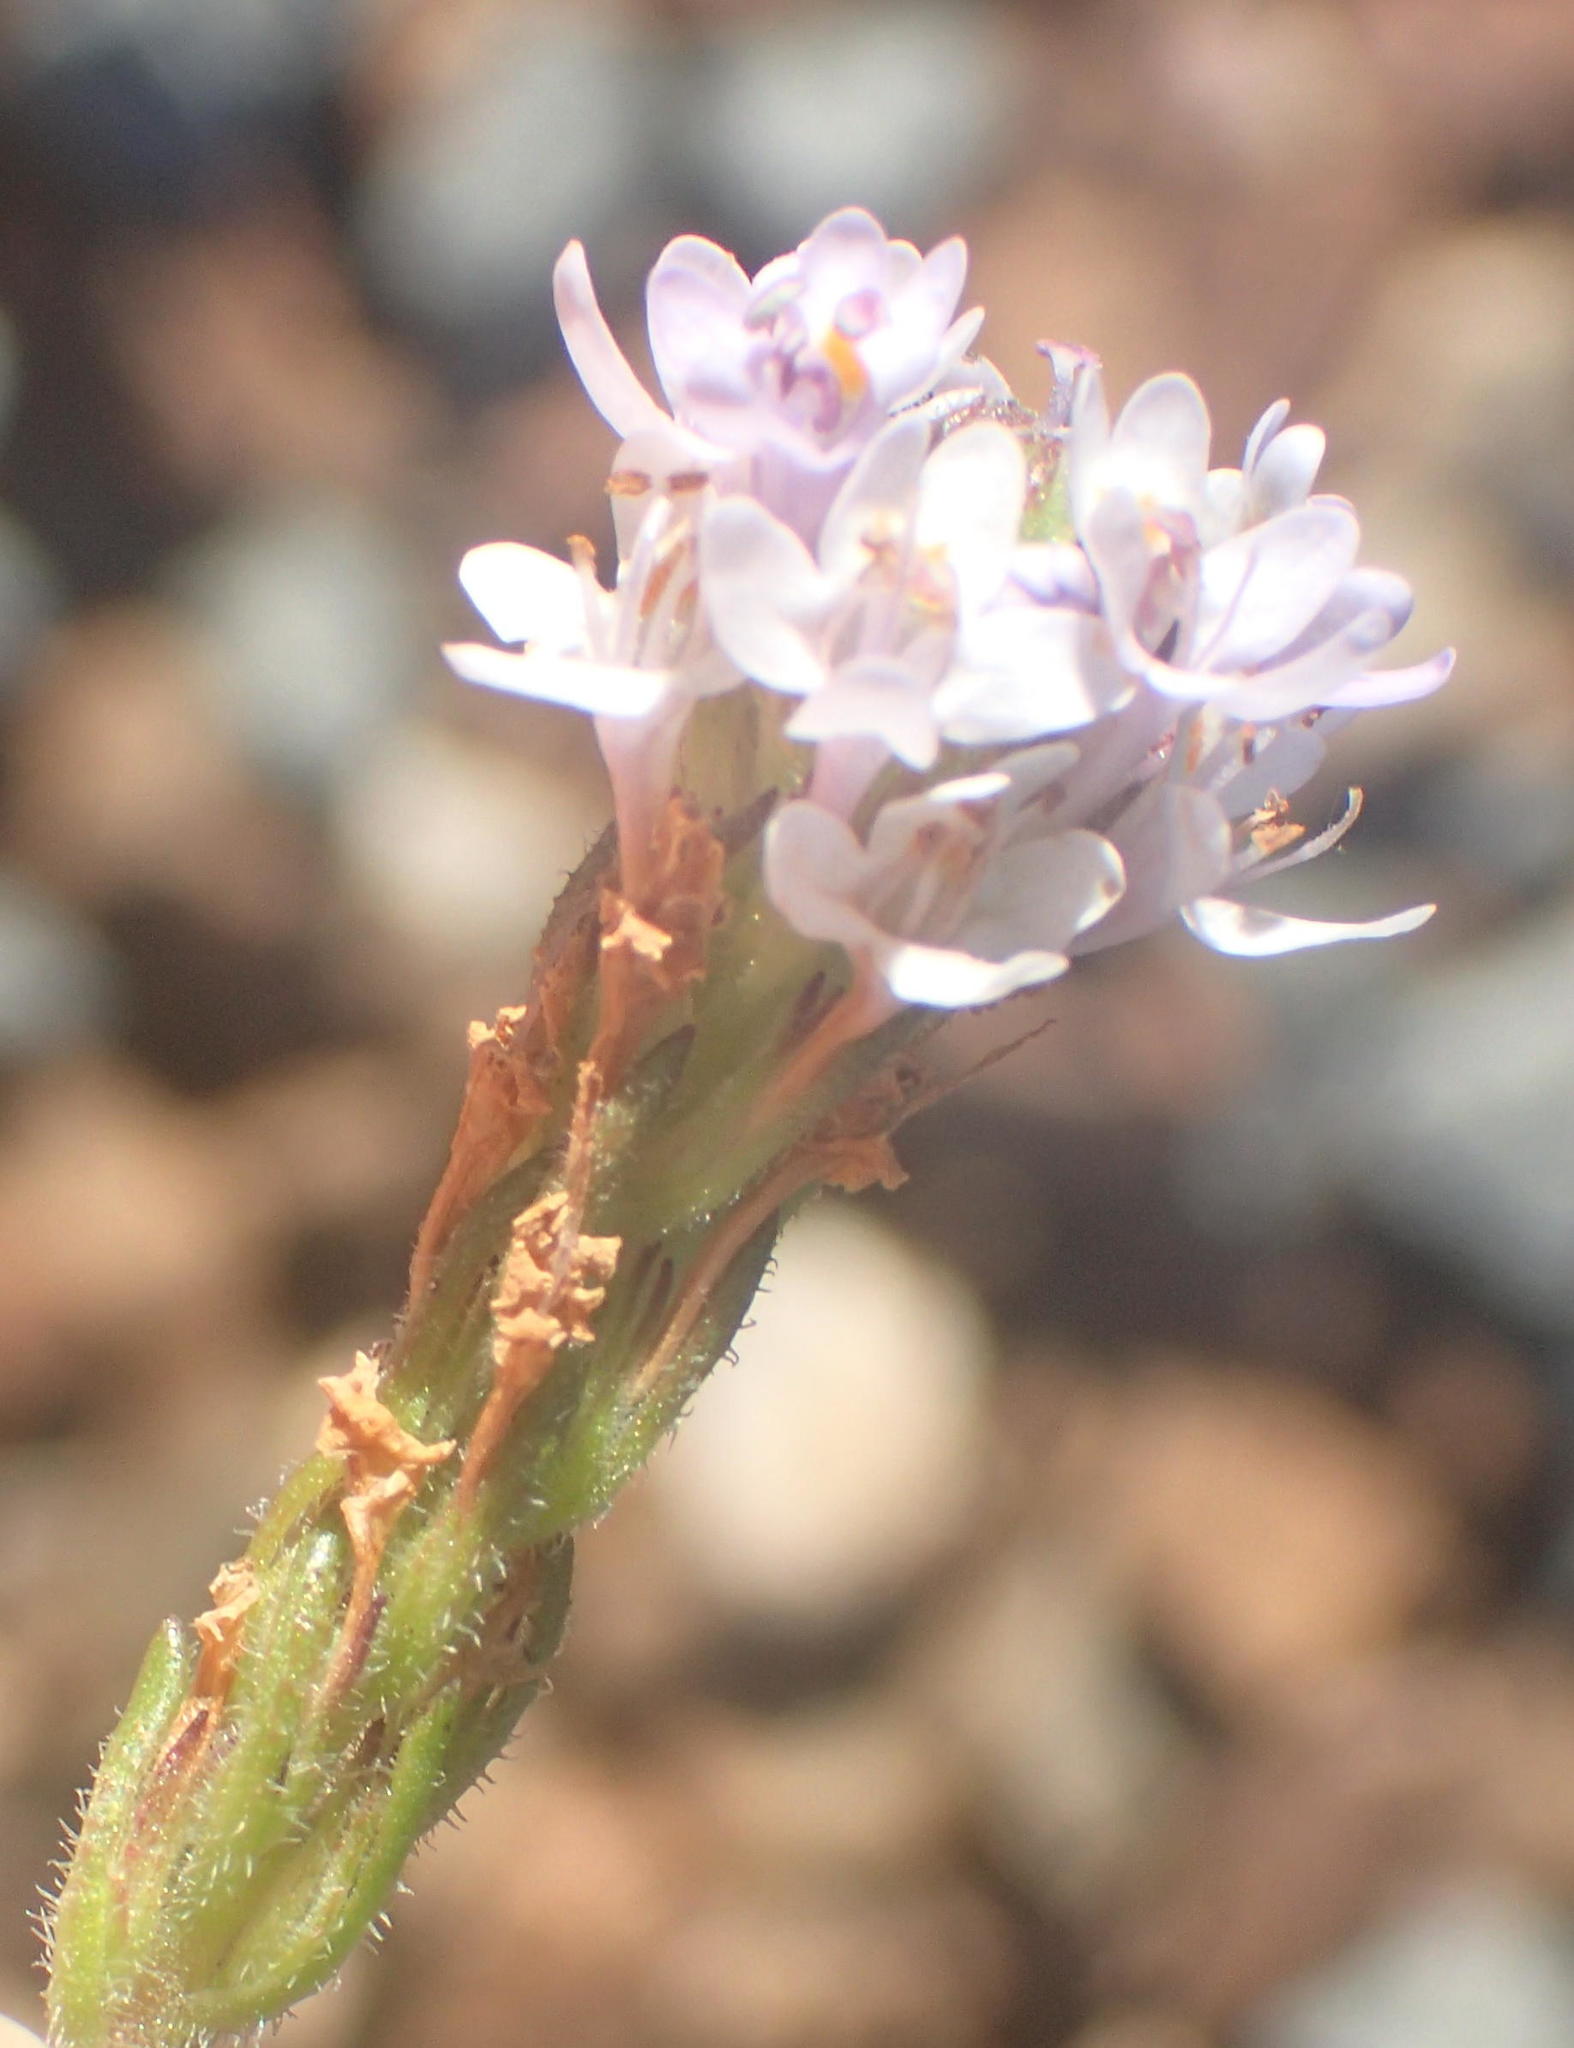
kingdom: Plantae
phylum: Tracheophyta
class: Magnoliopsida
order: Lamiales
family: Scrophulariaceae
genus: Pseudoselago
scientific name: Pseudoselago prostrata
